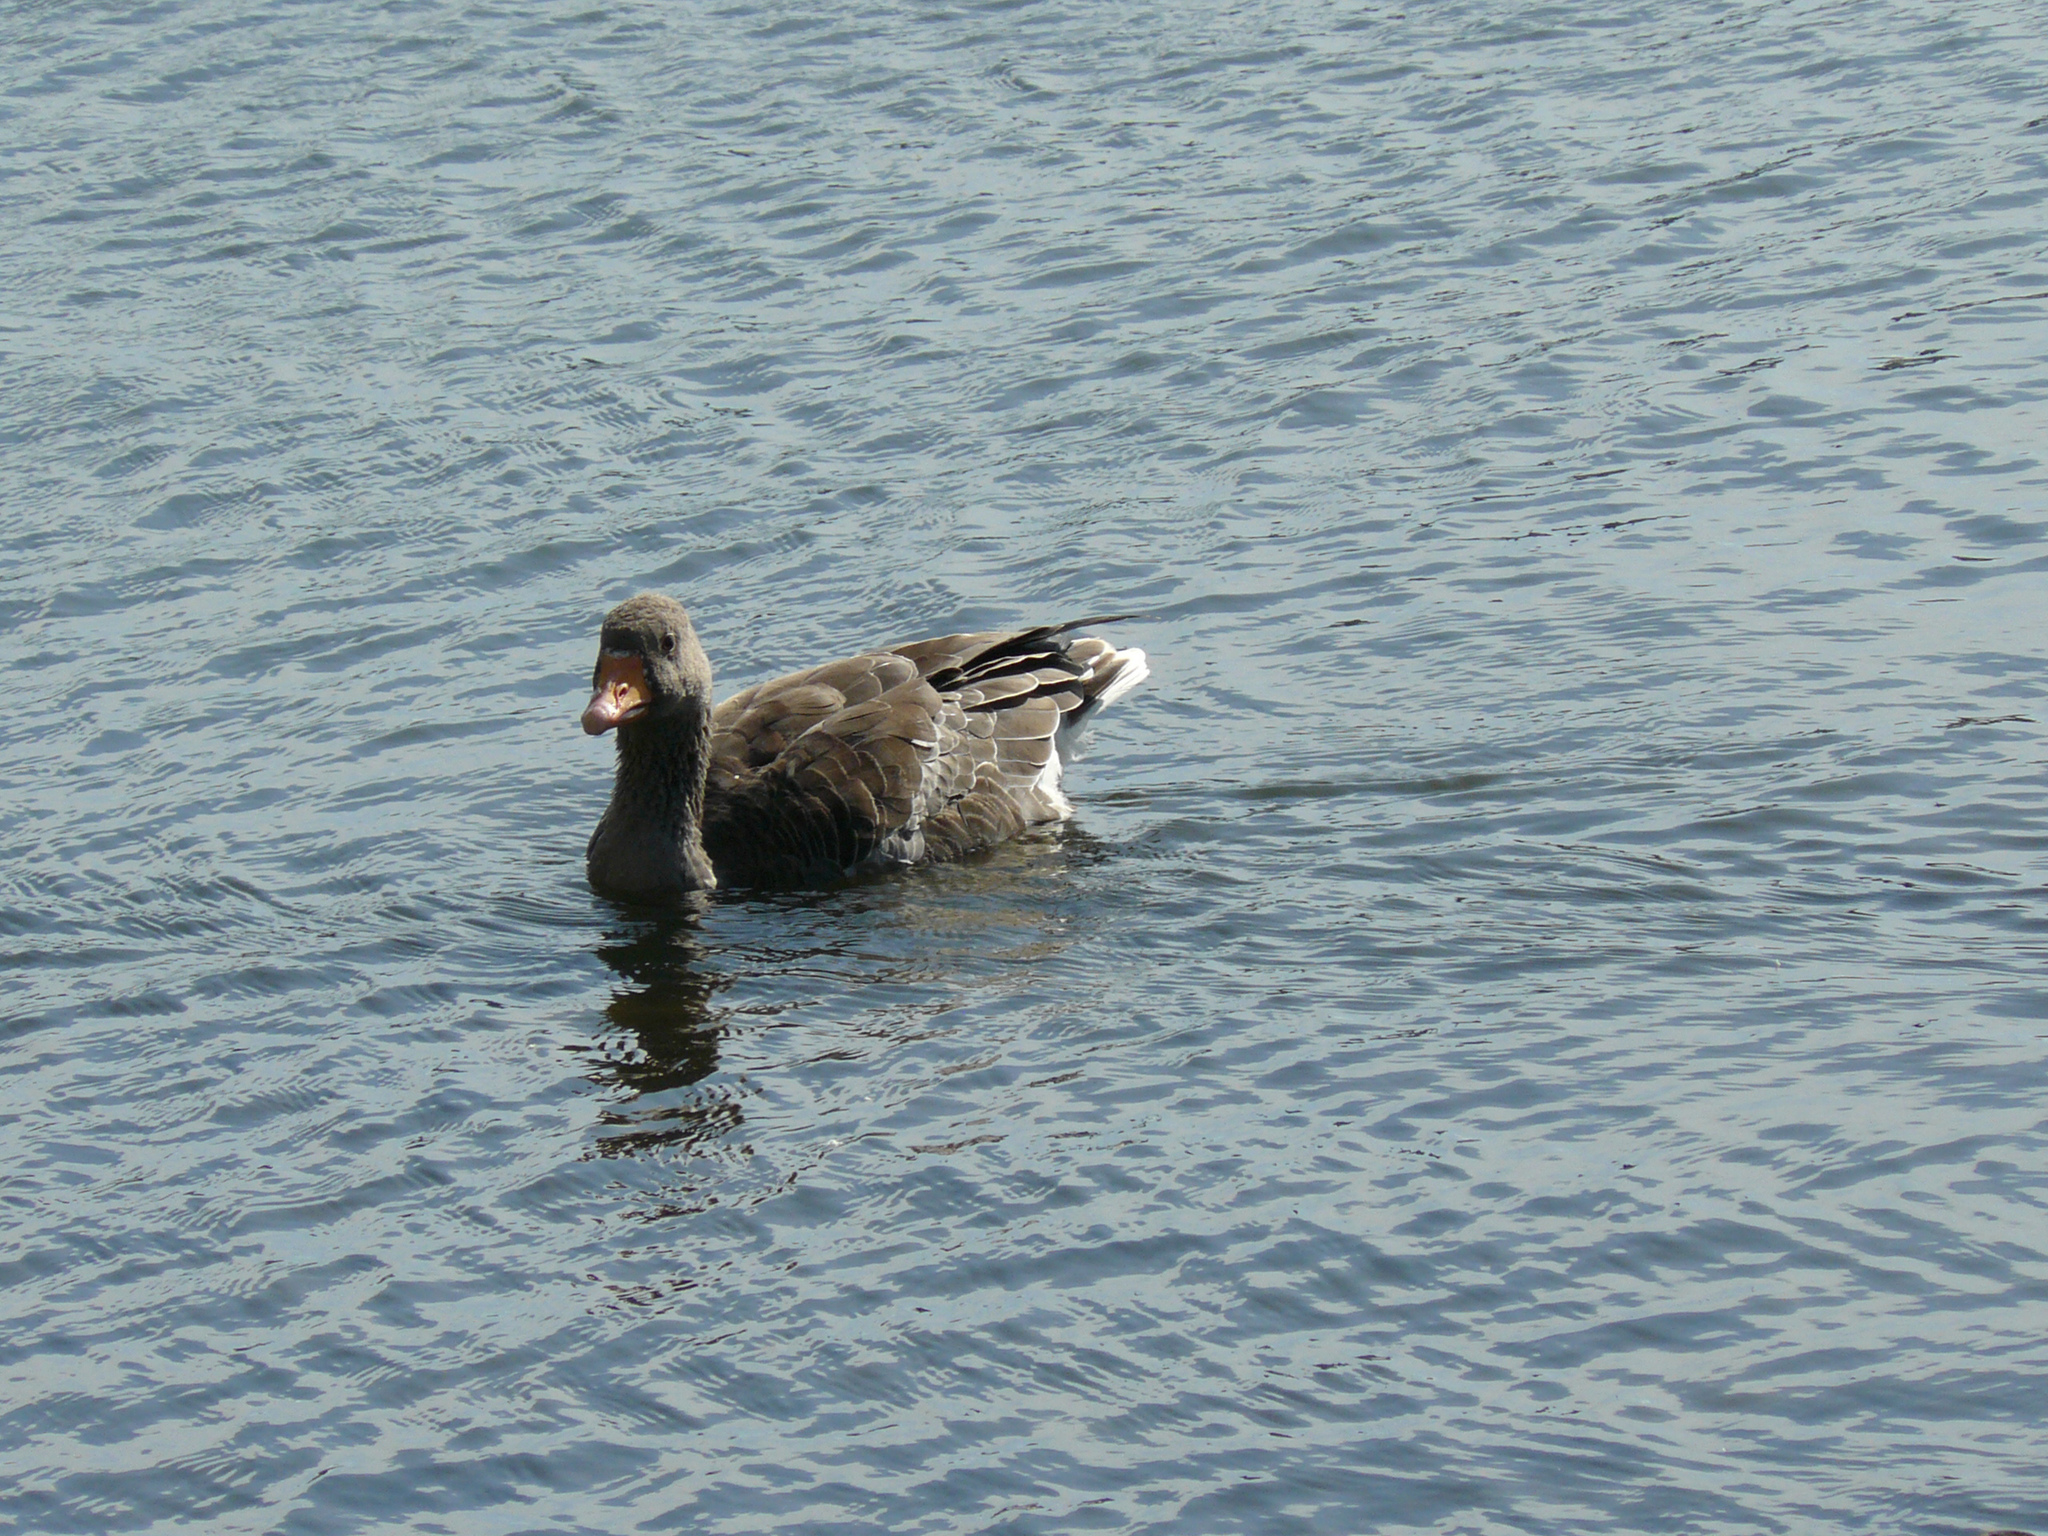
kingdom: Animalia
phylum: Chordata
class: Aves
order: Anseriformes
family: Anatidae
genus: Anser
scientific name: Anser anser
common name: Greylag goose
